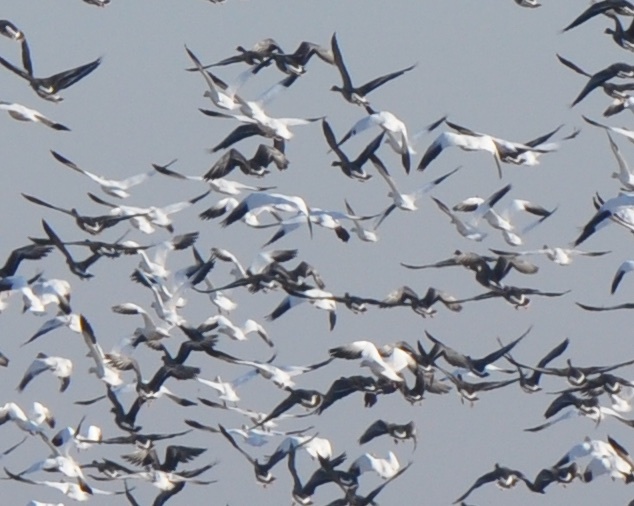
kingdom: Animalia
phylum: Chordata
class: Aves
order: Anseriformes
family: Anatidae
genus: Anser
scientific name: Anser caerulescens
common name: Snow goose
